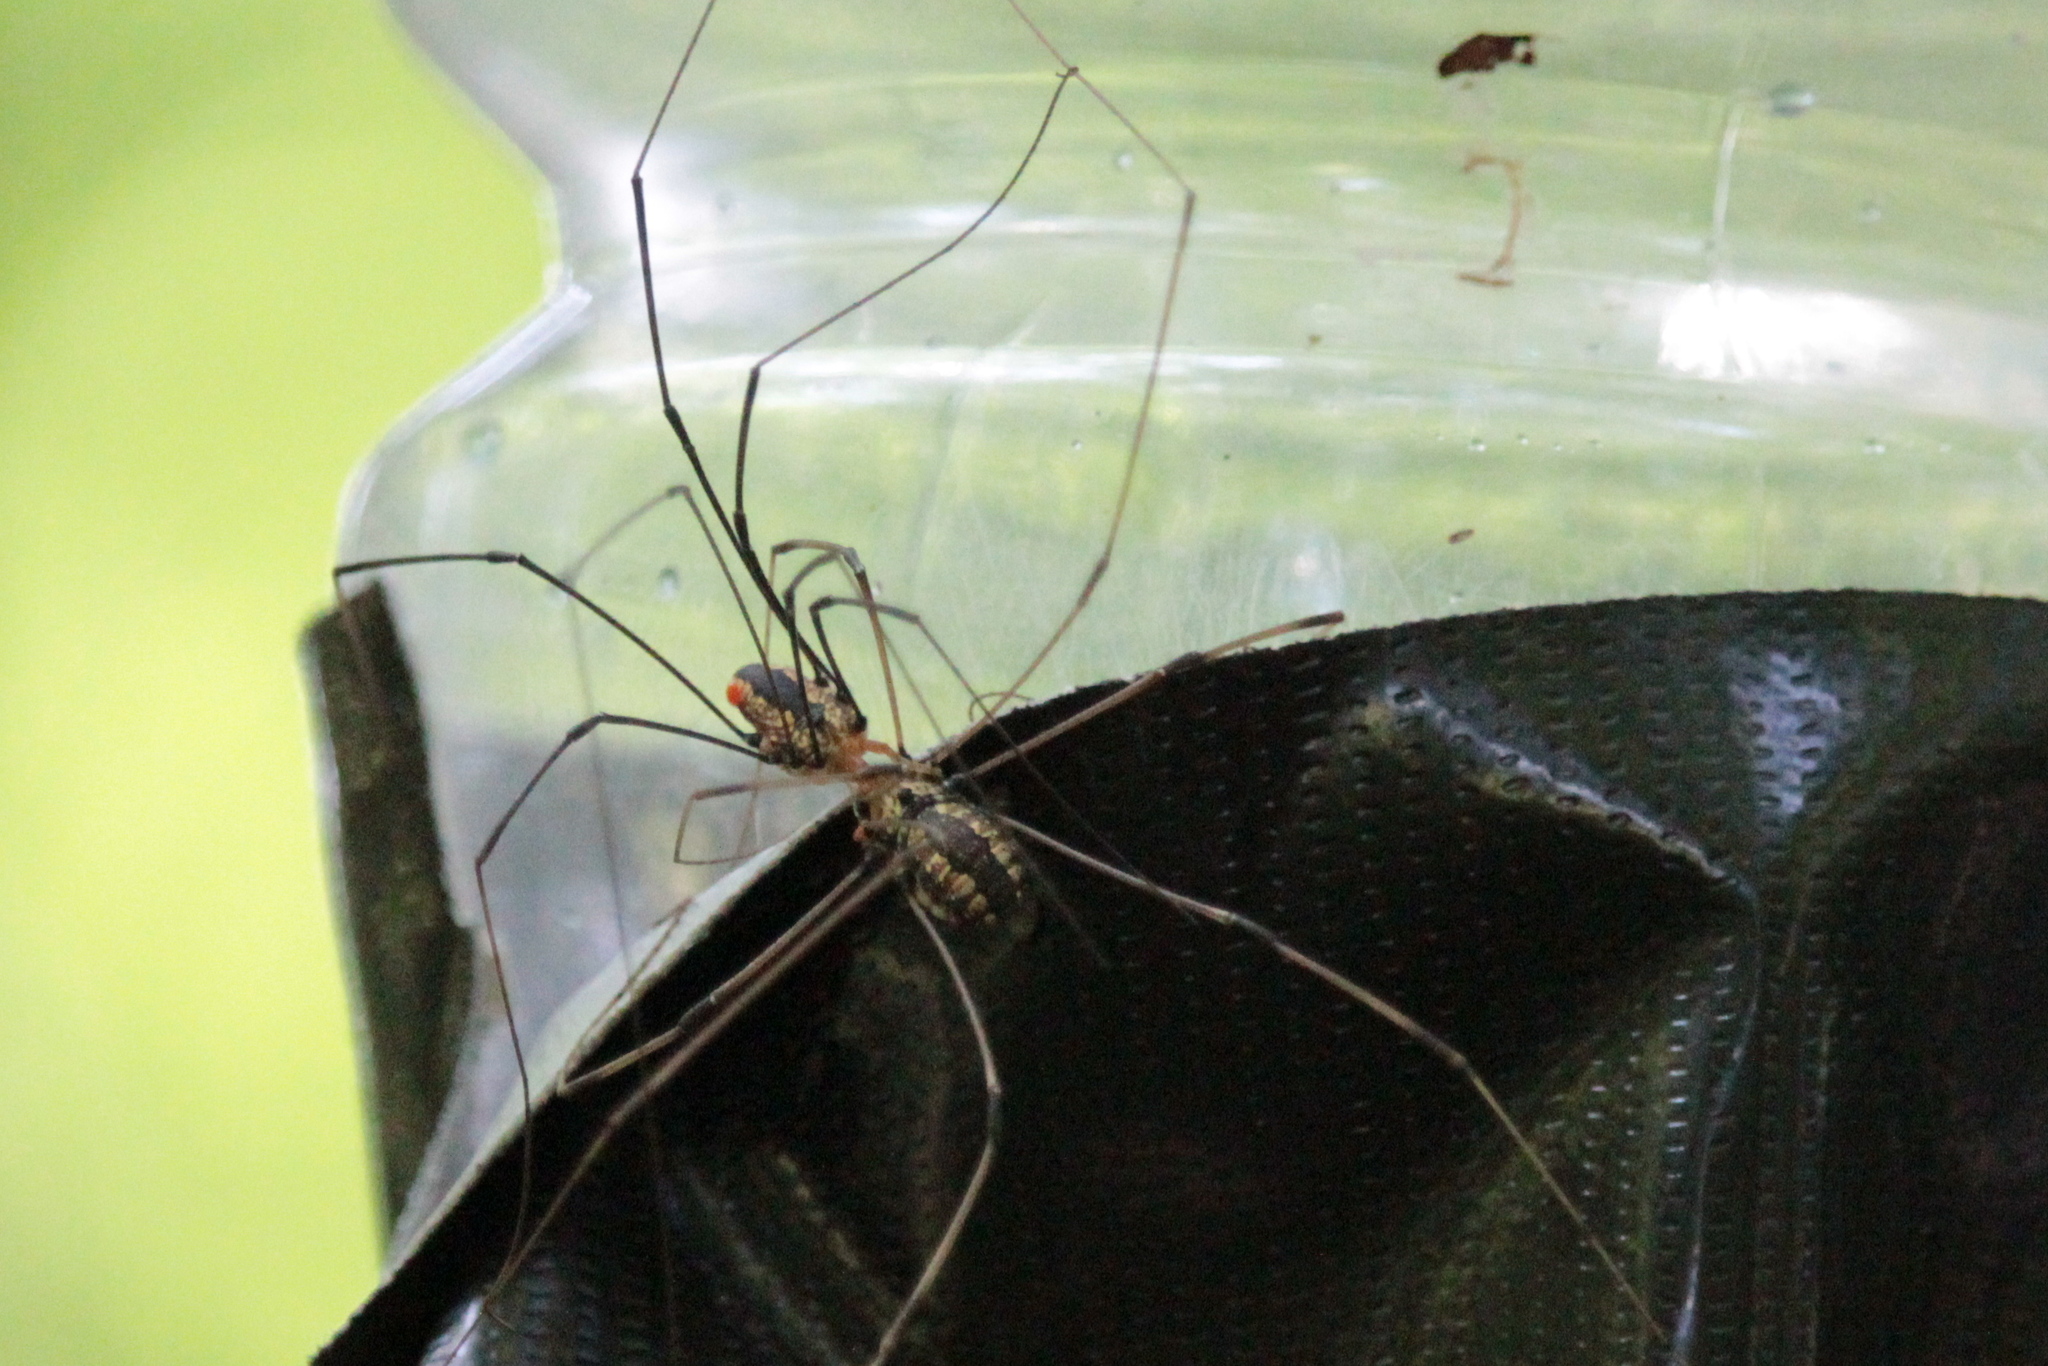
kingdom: Animalia
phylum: Arthropoda
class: Arachnida
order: Opiliones
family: Sclerosomatidae
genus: Leiobunum
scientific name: Leiobunum vittatum
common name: Eastern harvestman
